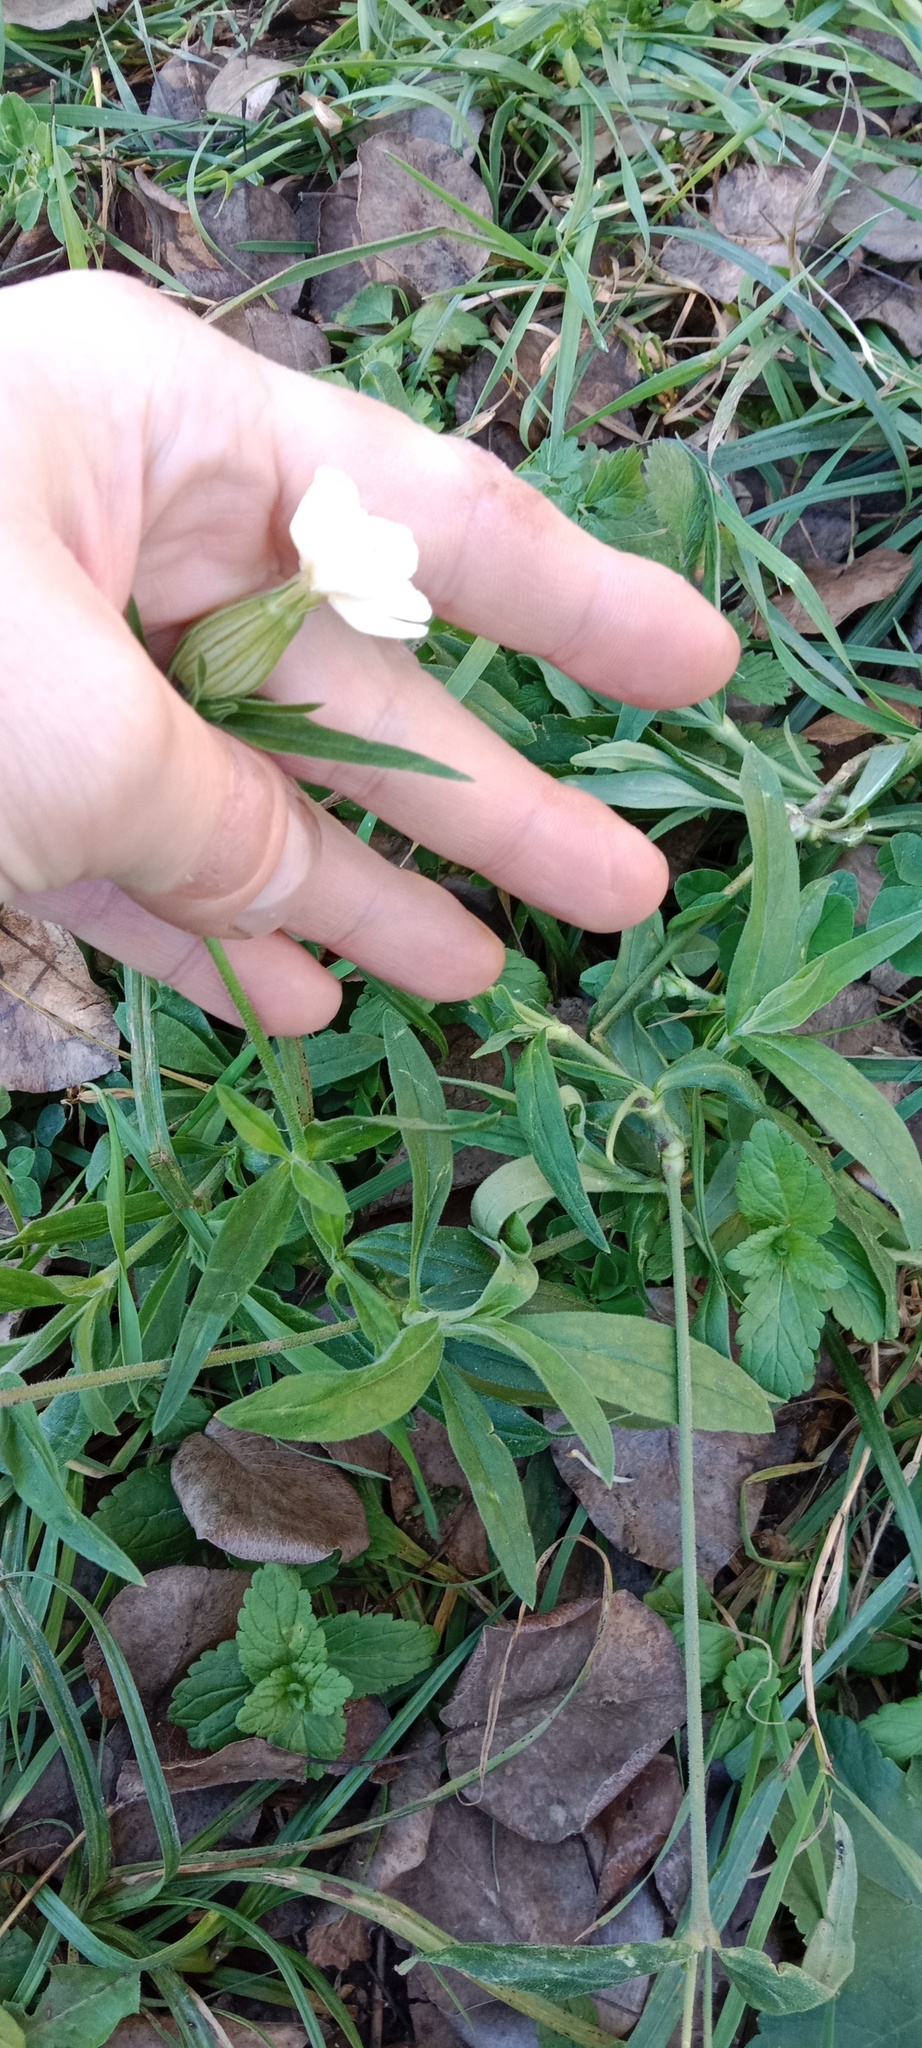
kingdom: Plantae
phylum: Tracheophyta
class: Magnoliopsida
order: Caryophyllales
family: Caryophyllaceae
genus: Silene
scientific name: Silene latifolia
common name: White campion
